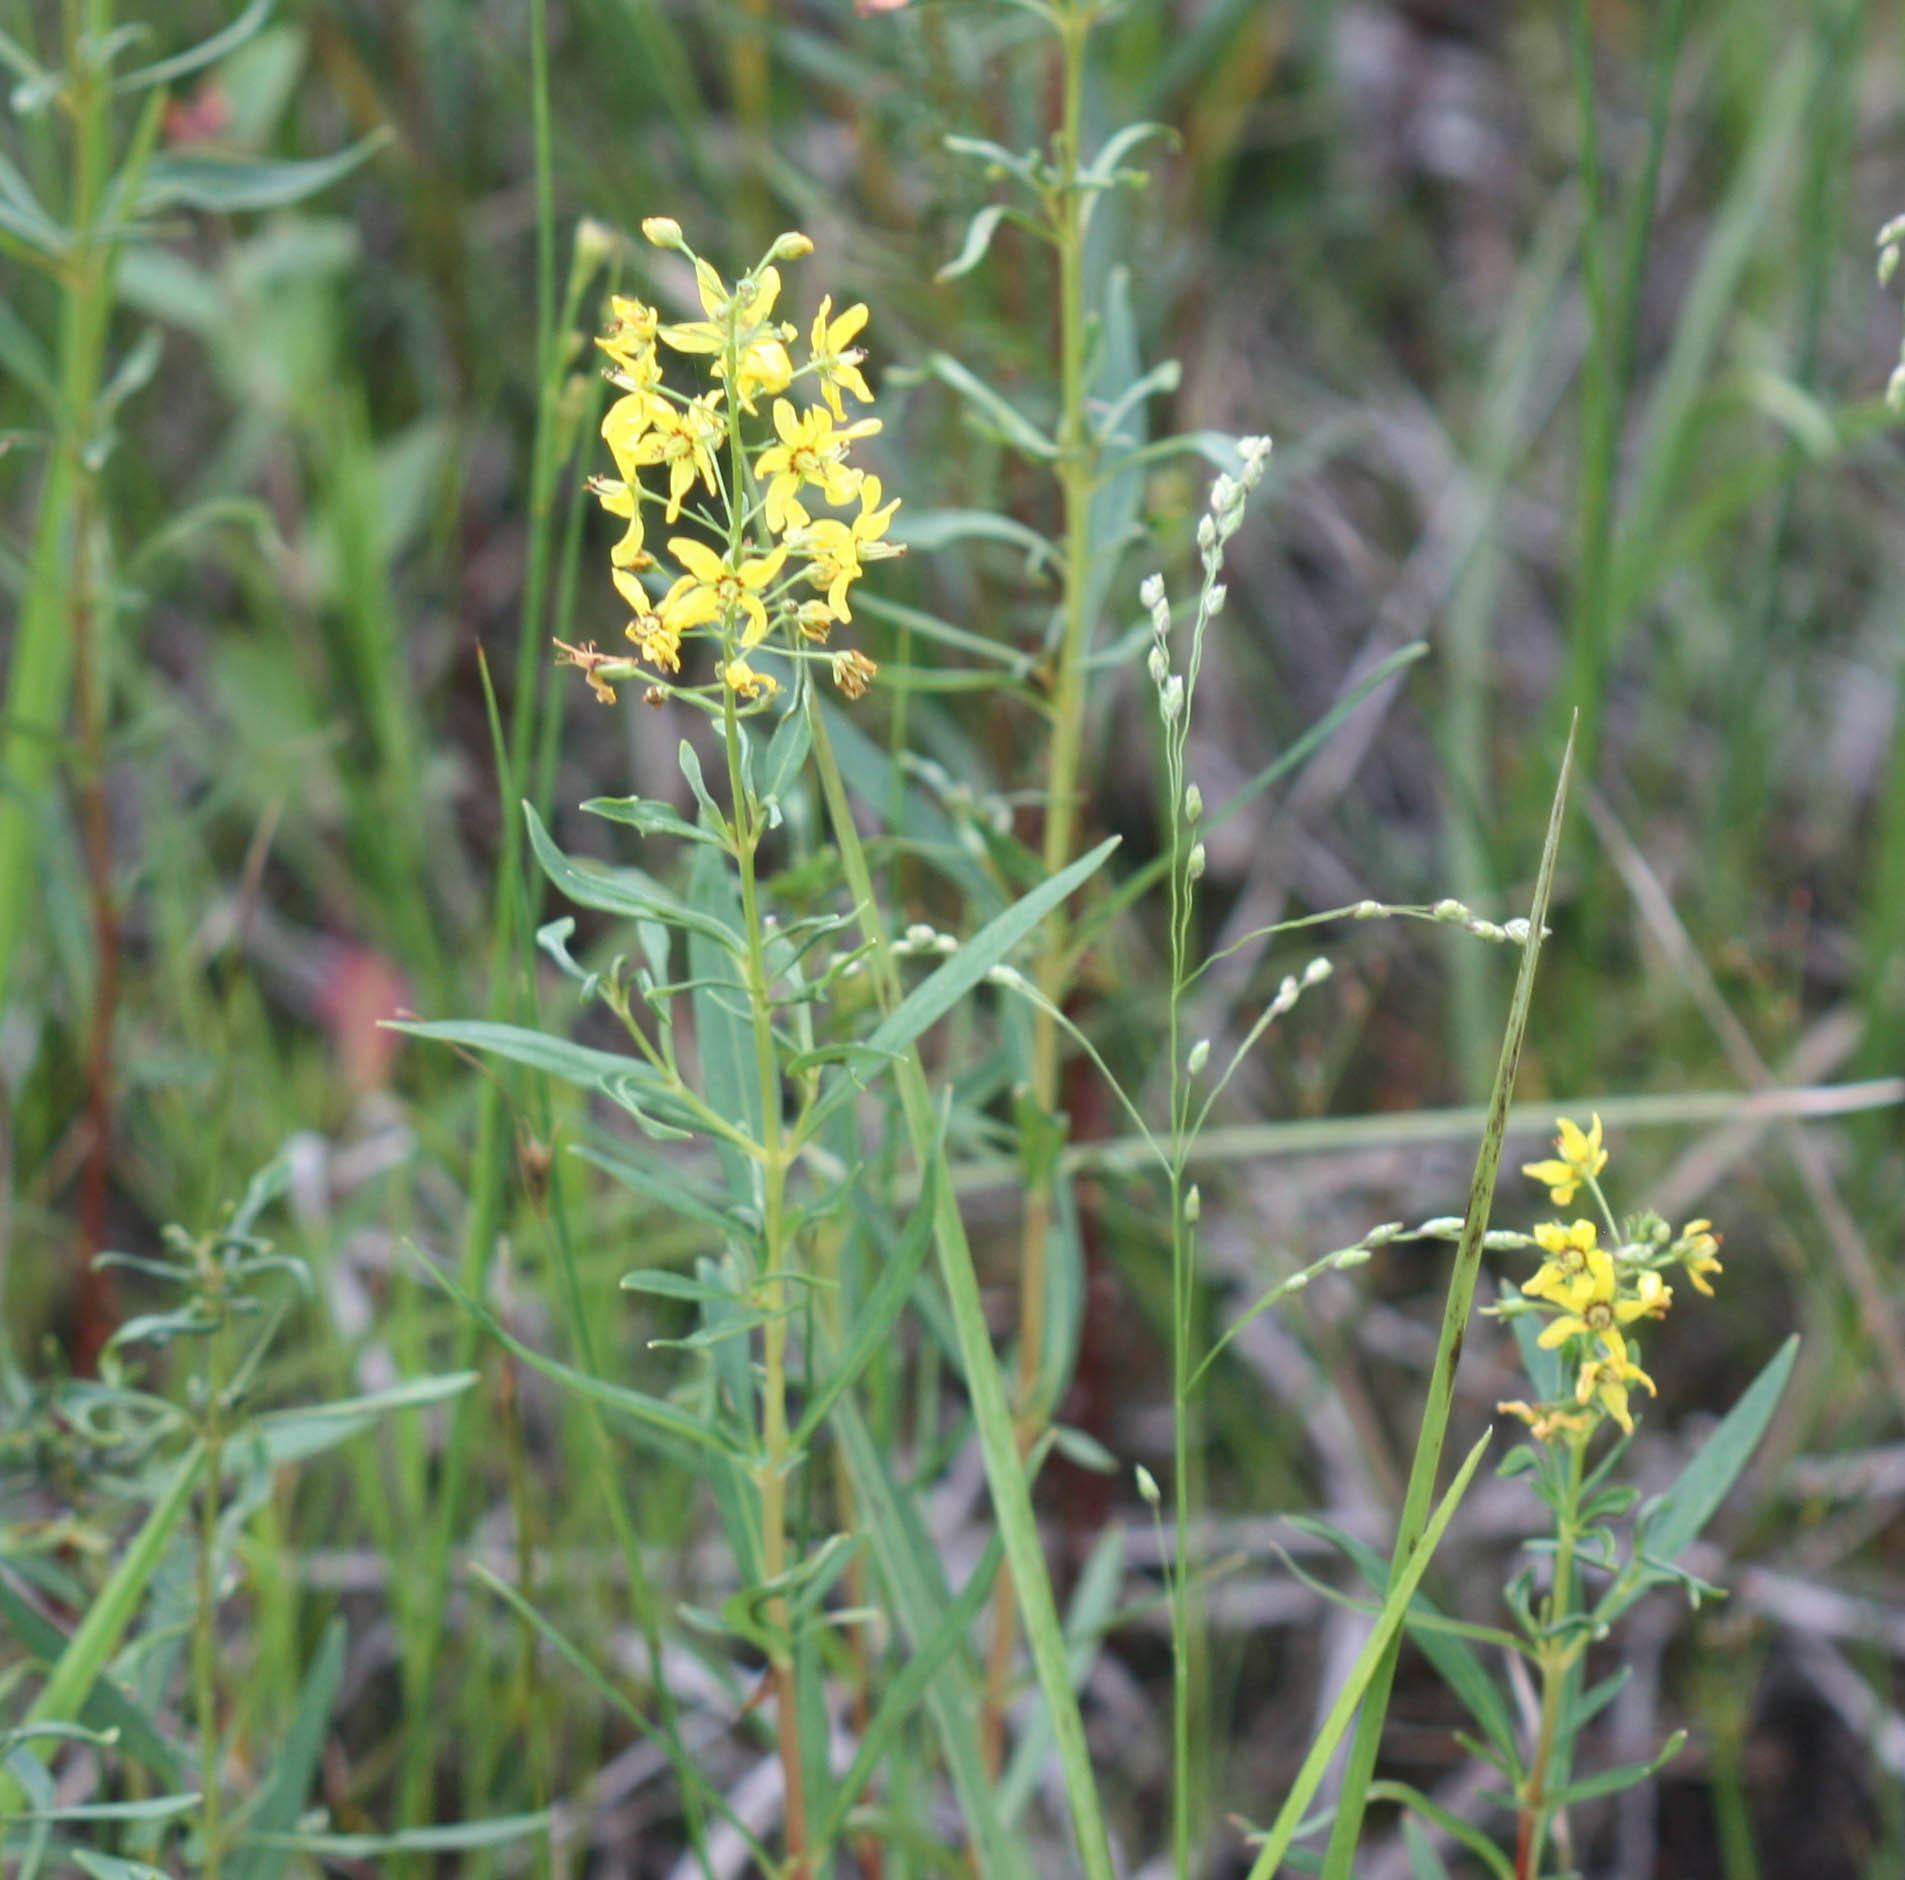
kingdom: Plantae
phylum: Tracheophyta
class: Magnoliopsida
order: Ericales
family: Primulaceae
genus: Lysimachia
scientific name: Lysimachia terrestris
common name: Lake loosestrife
